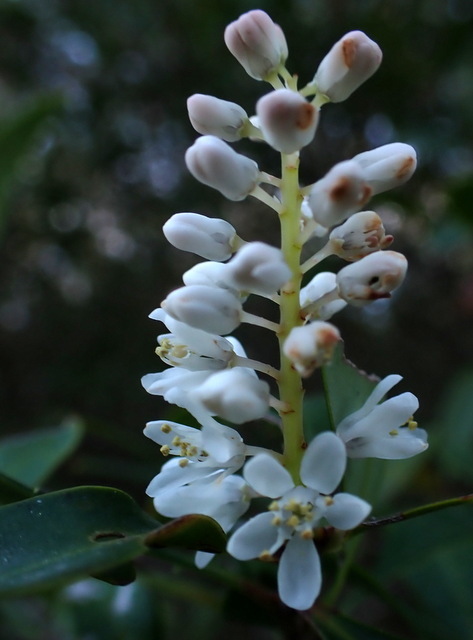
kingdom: Plantae
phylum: Tracheophyta
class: Magnoliopsida
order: Ericales
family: Cyrillaceae
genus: Cliftonia
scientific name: Cliftonia monophylla
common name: Titi
